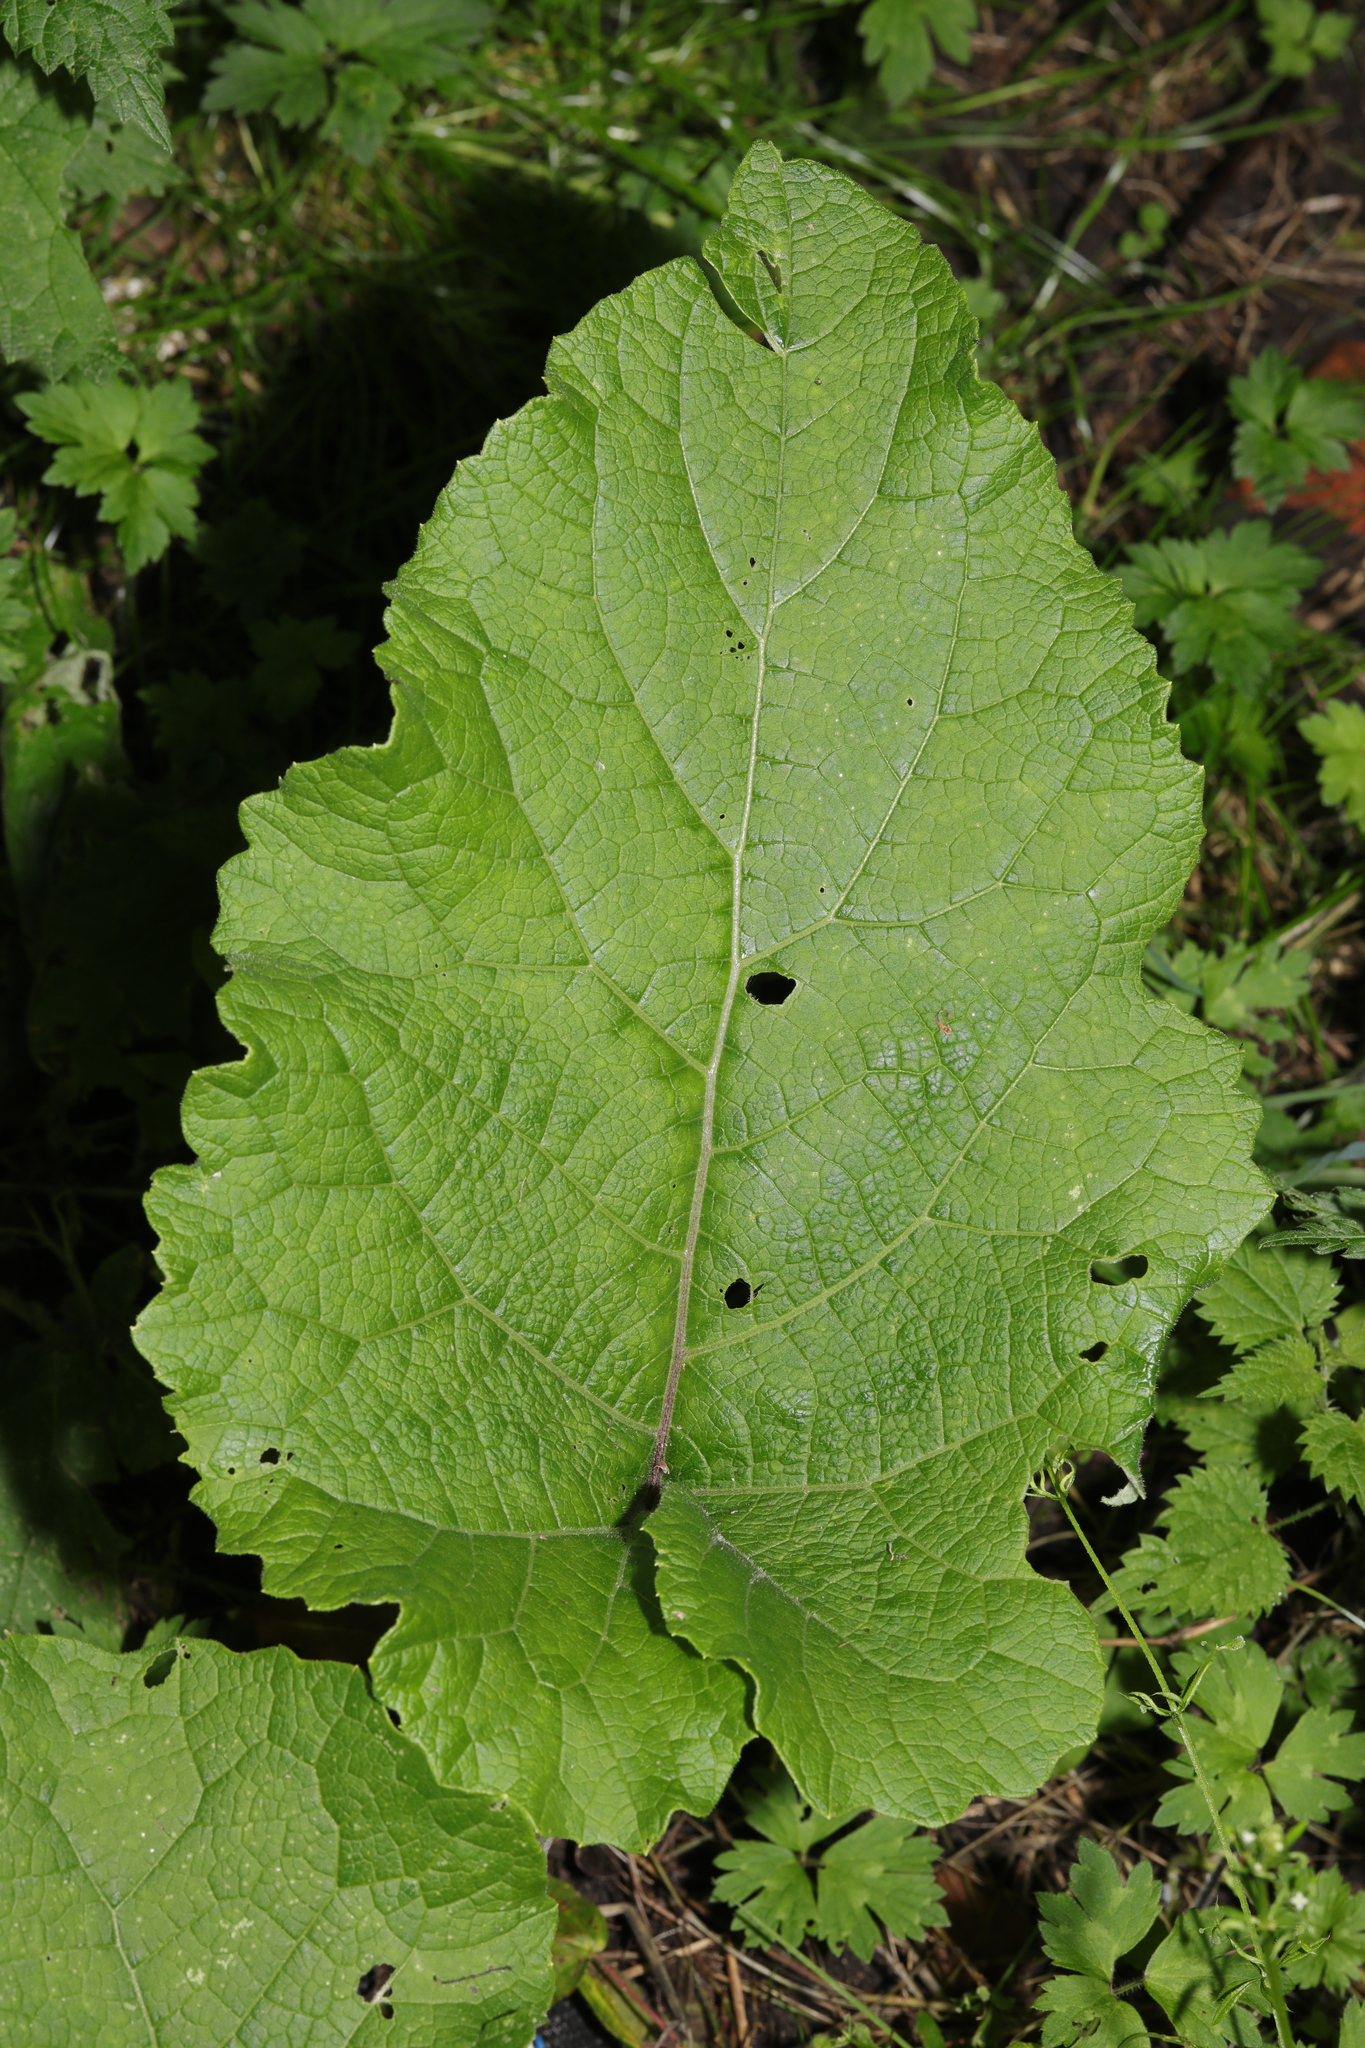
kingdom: Plantae
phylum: Tracheophyta
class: Magnoliopsida
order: Asterales
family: Asteraceae
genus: Arctium
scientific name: Arctium minus
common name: Lesser burdock
